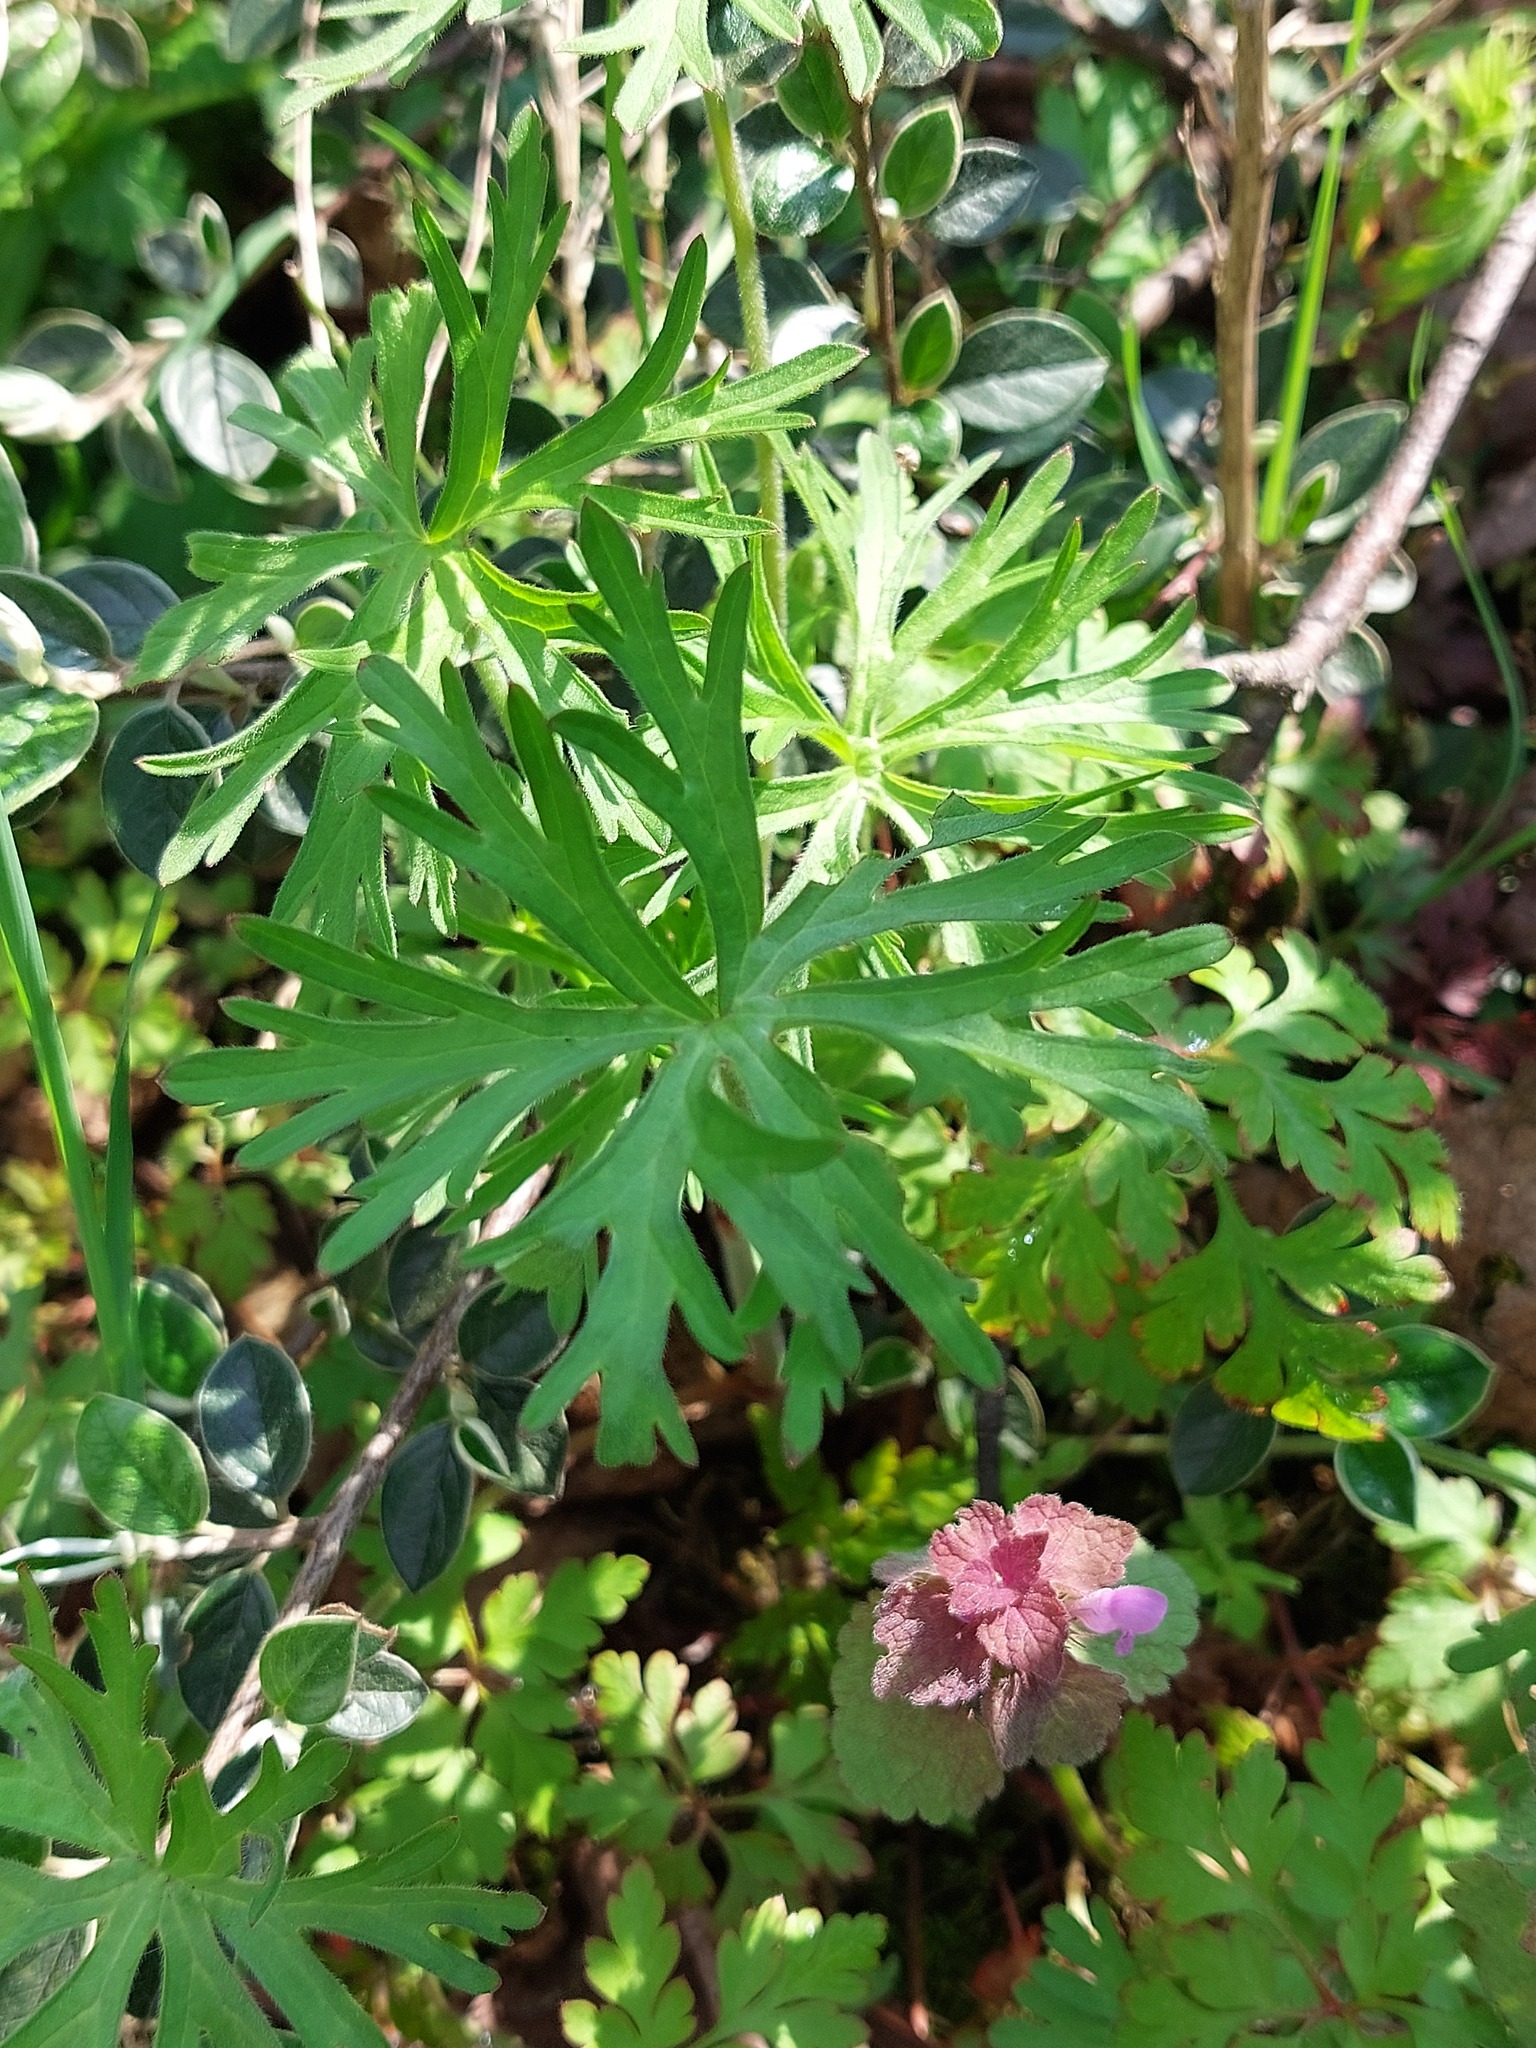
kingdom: Plantae
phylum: Tracheophyta
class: Magnoliopsida
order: Geraniales
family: Geraniaceae
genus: Geranium
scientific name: Geranium dissectum
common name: Cut-leaved crane's-bill
